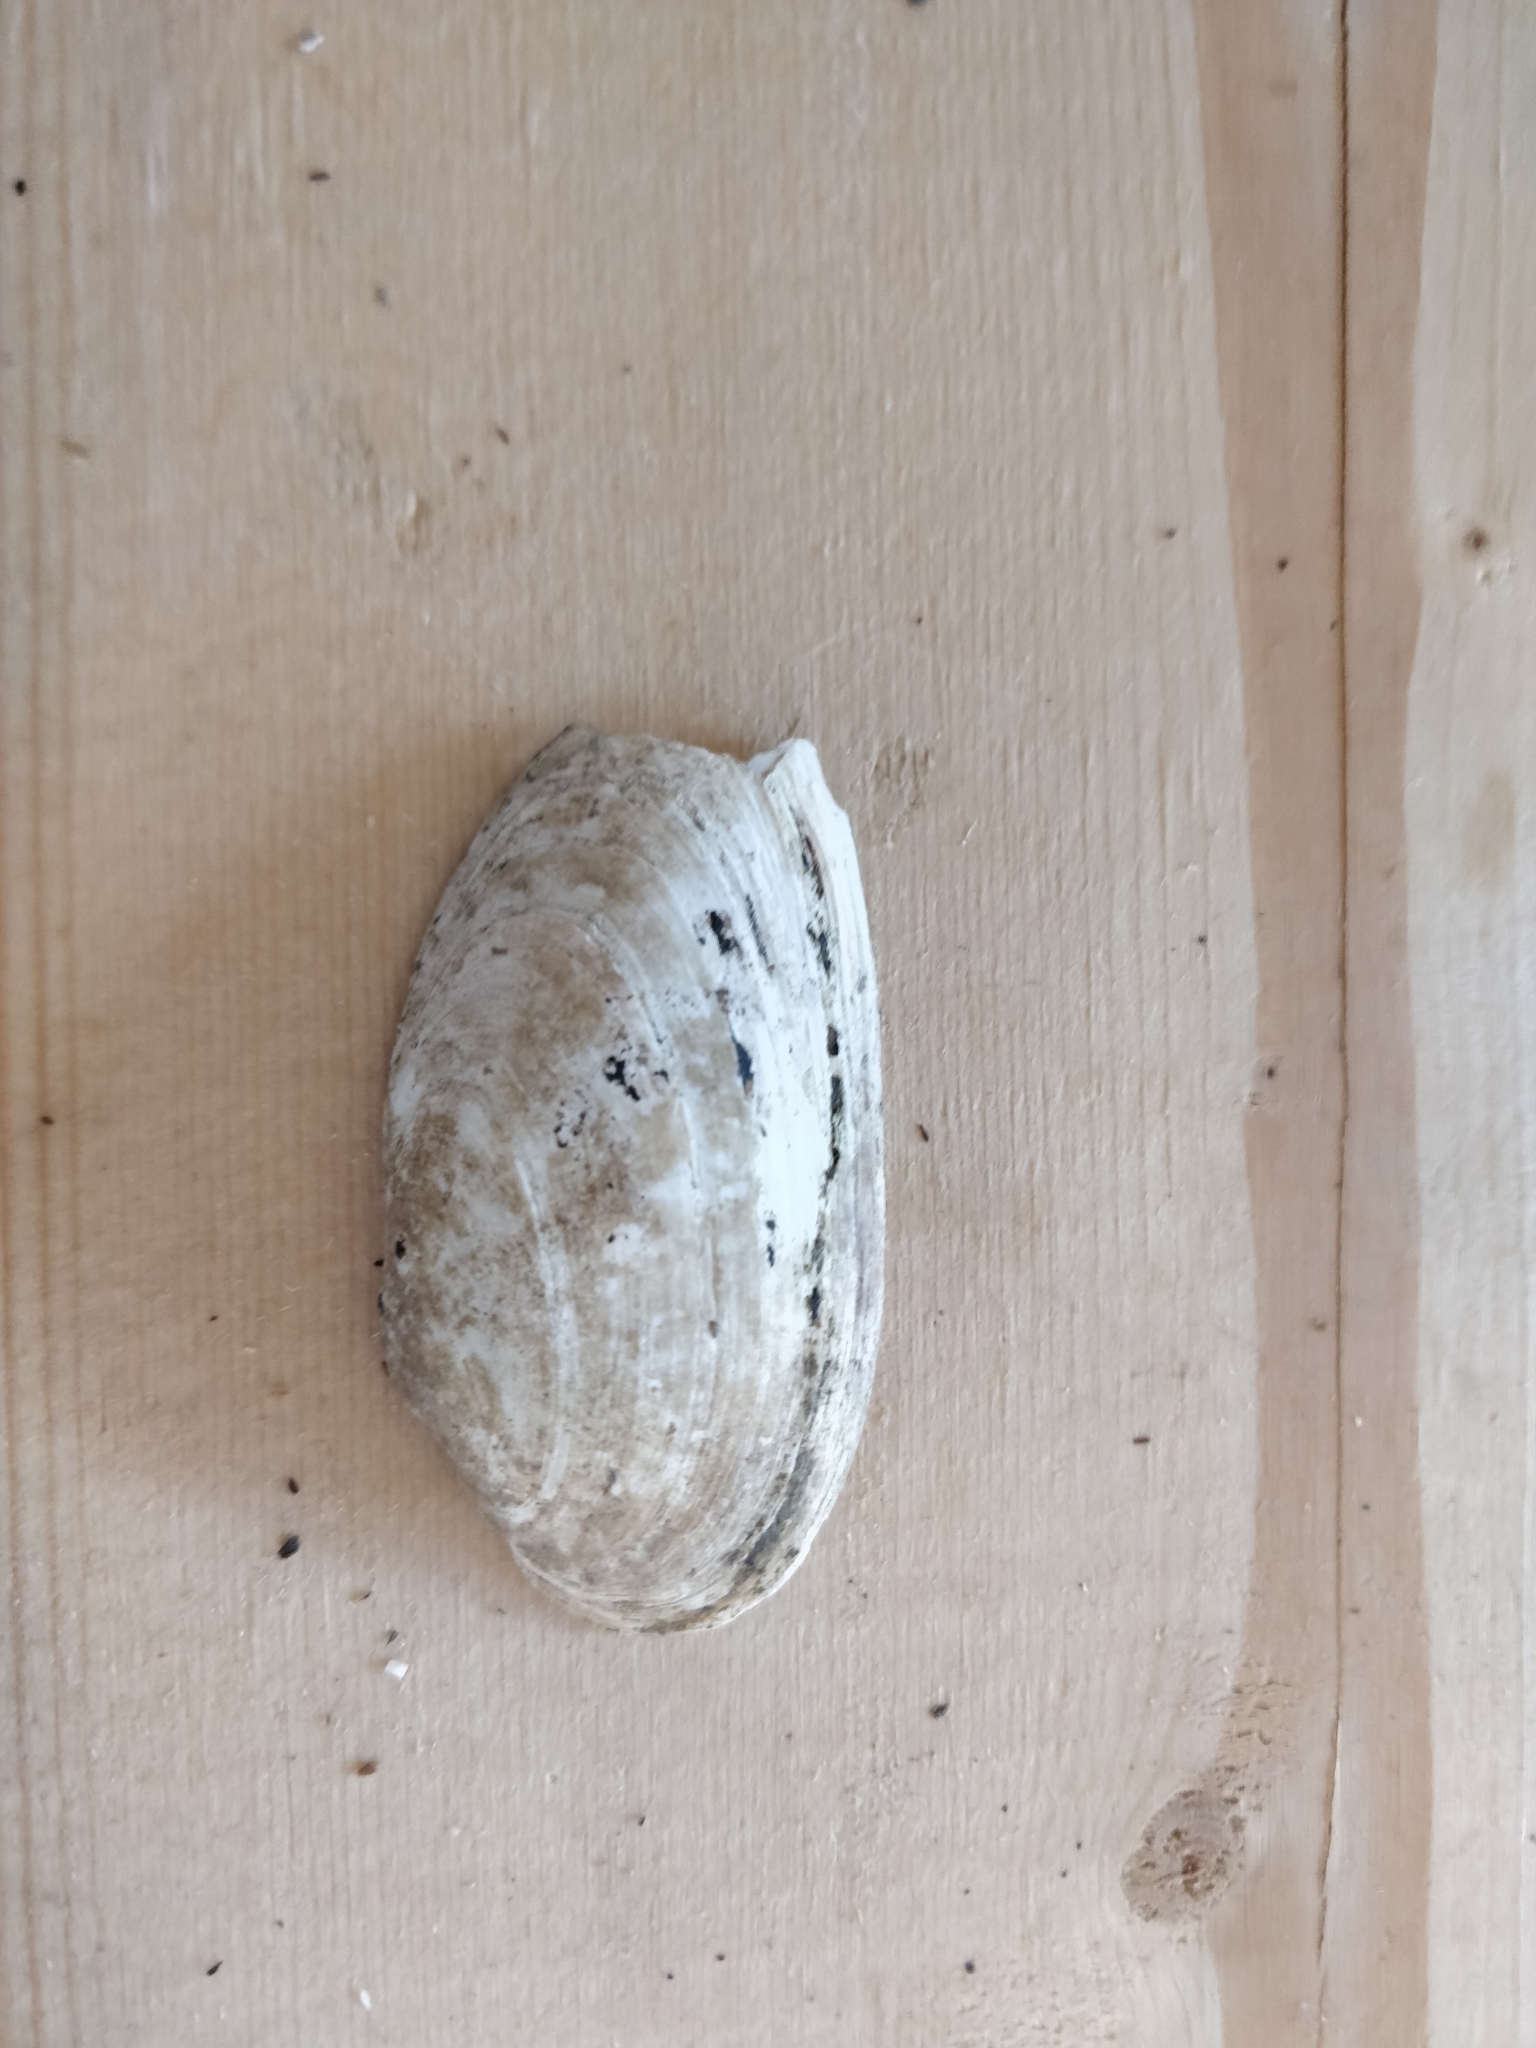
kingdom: Animalia
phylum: Mollusca
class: Bivalvia
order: Unionida
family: Unionidae
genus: Anodontoides
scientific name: Anodontoides ferussacianus
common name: Cylindrical papershell
